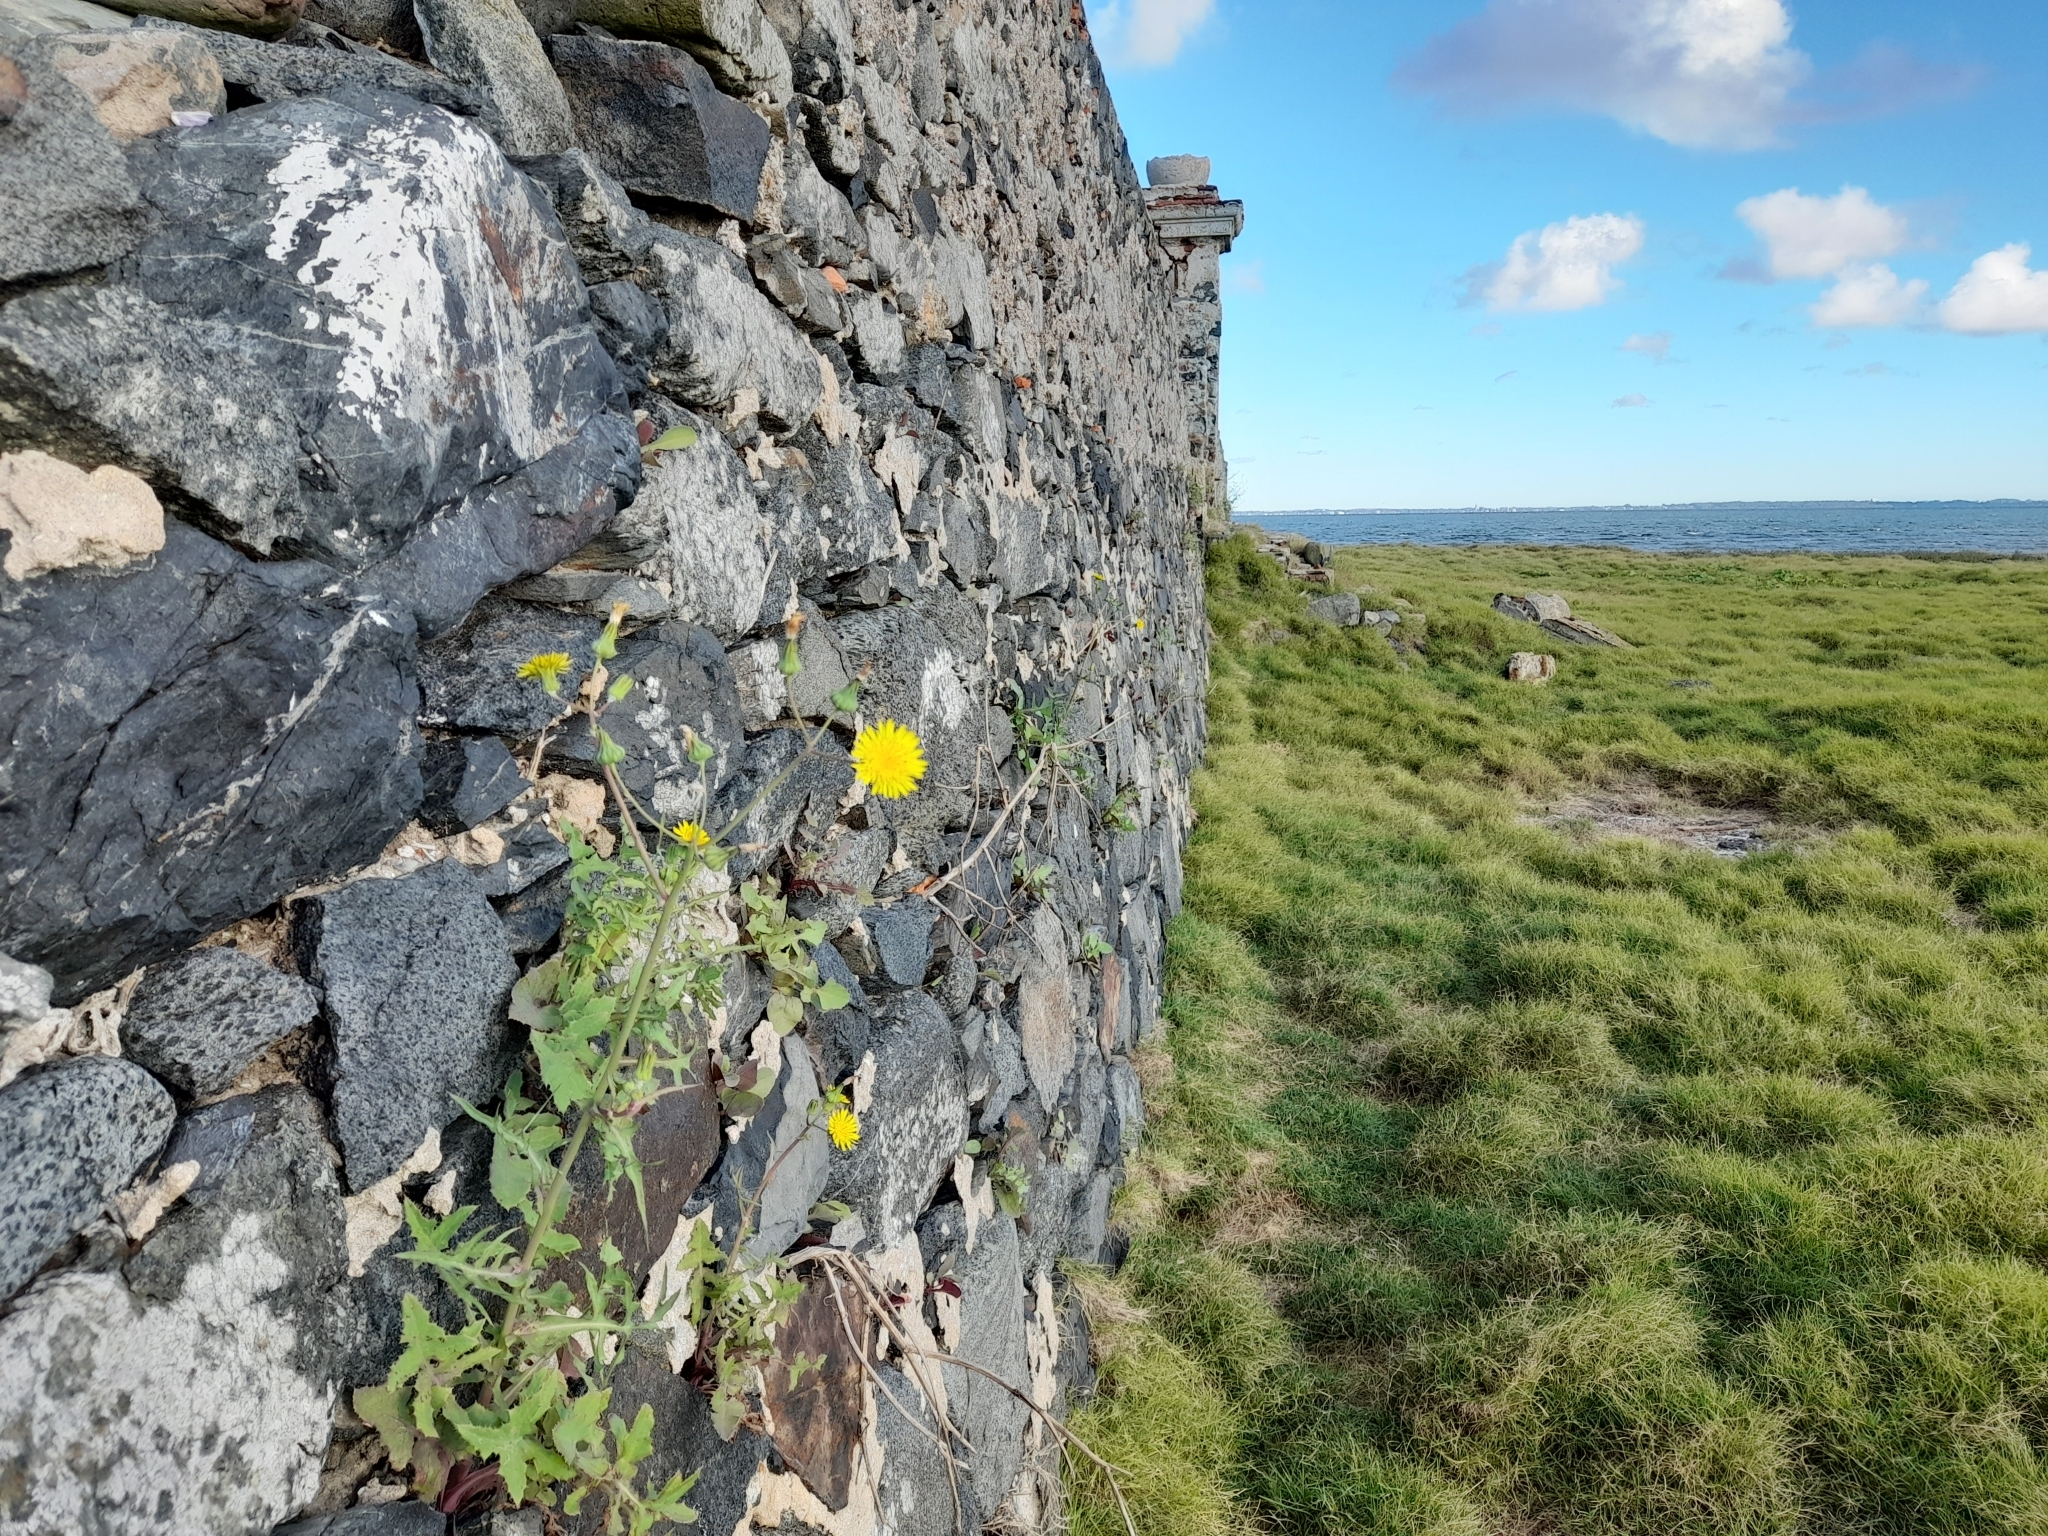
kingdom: Plantae
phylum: Tracheophyta
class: Magnoliopsida
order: Asterales
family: Asteraceae
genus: Sonchus
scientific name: Sonchus oleraceus
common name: Common sowthistle
